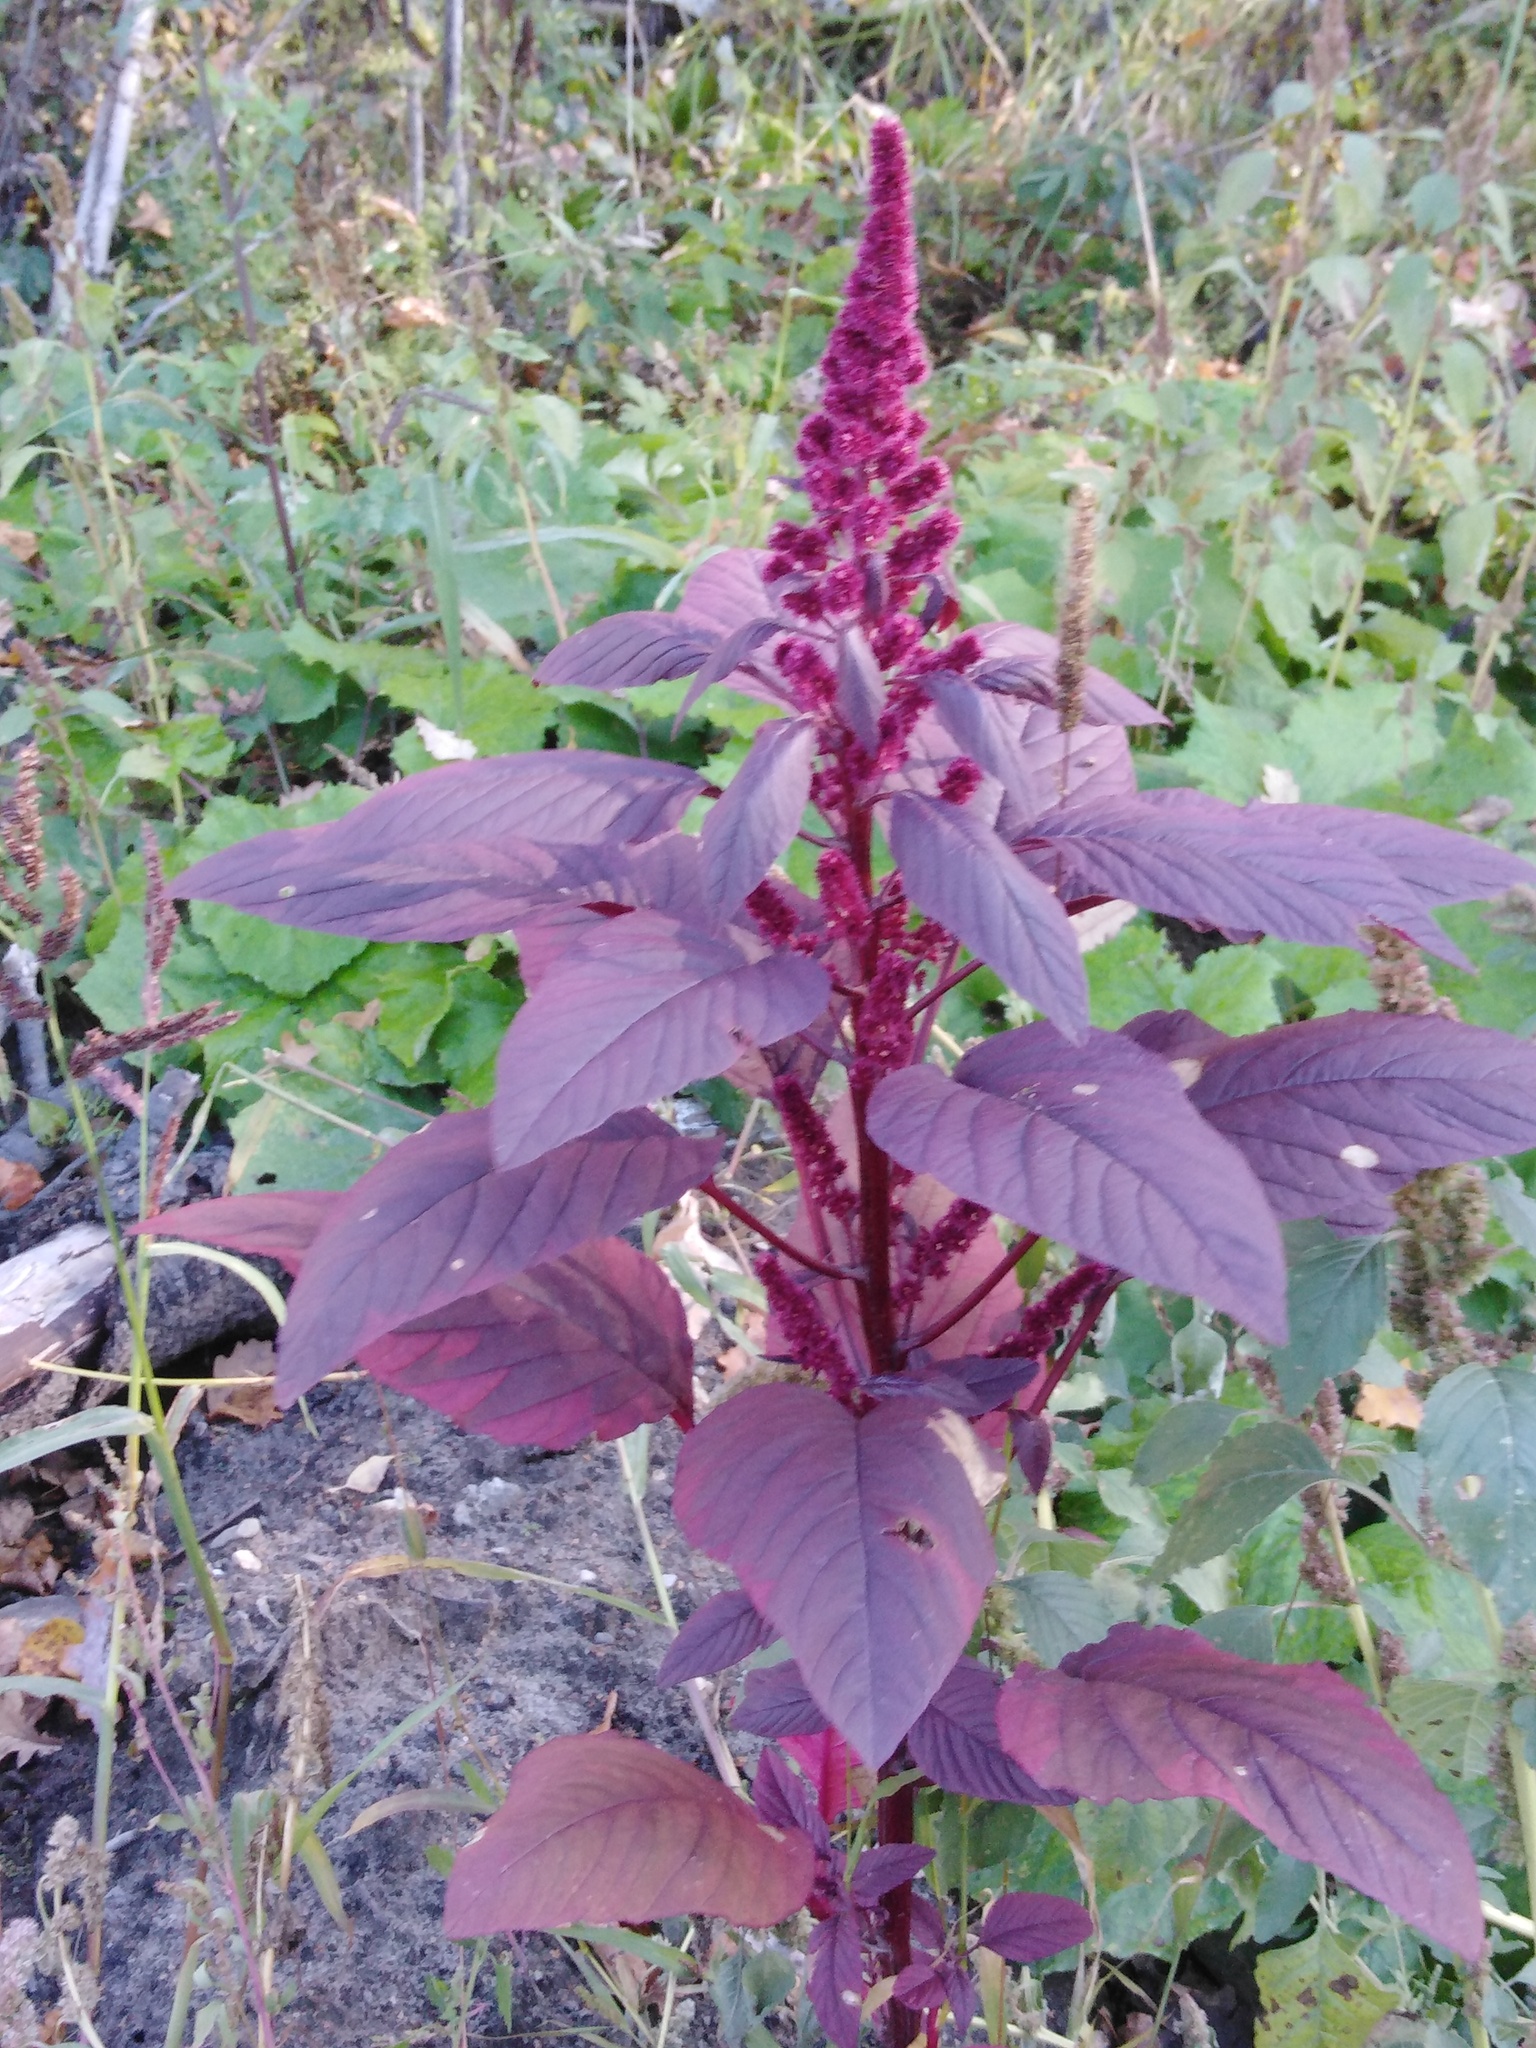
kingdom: Plantae
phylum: Tracheophyta
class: Magnoliopsida
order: Caryophyllales
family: Amaranthaceae
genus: Amaranthus
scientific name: Amaranthus cruentus
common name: Purple amaranth
